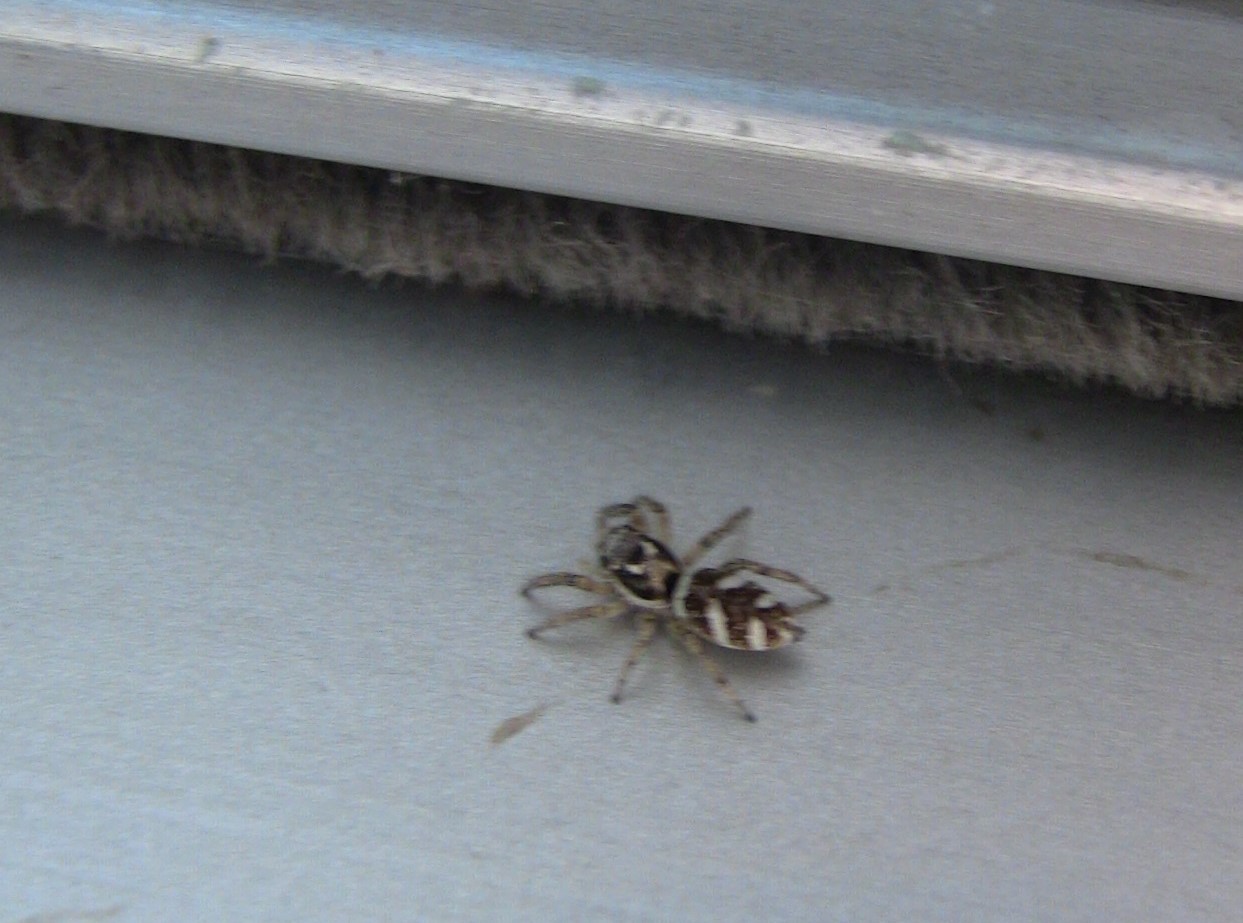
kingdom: Animalia
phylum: Arthropoda
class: Arachnida
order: Araneae
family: Salticidae
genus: Salticus
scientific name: Salticus scenicus
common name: Zebra jumper
